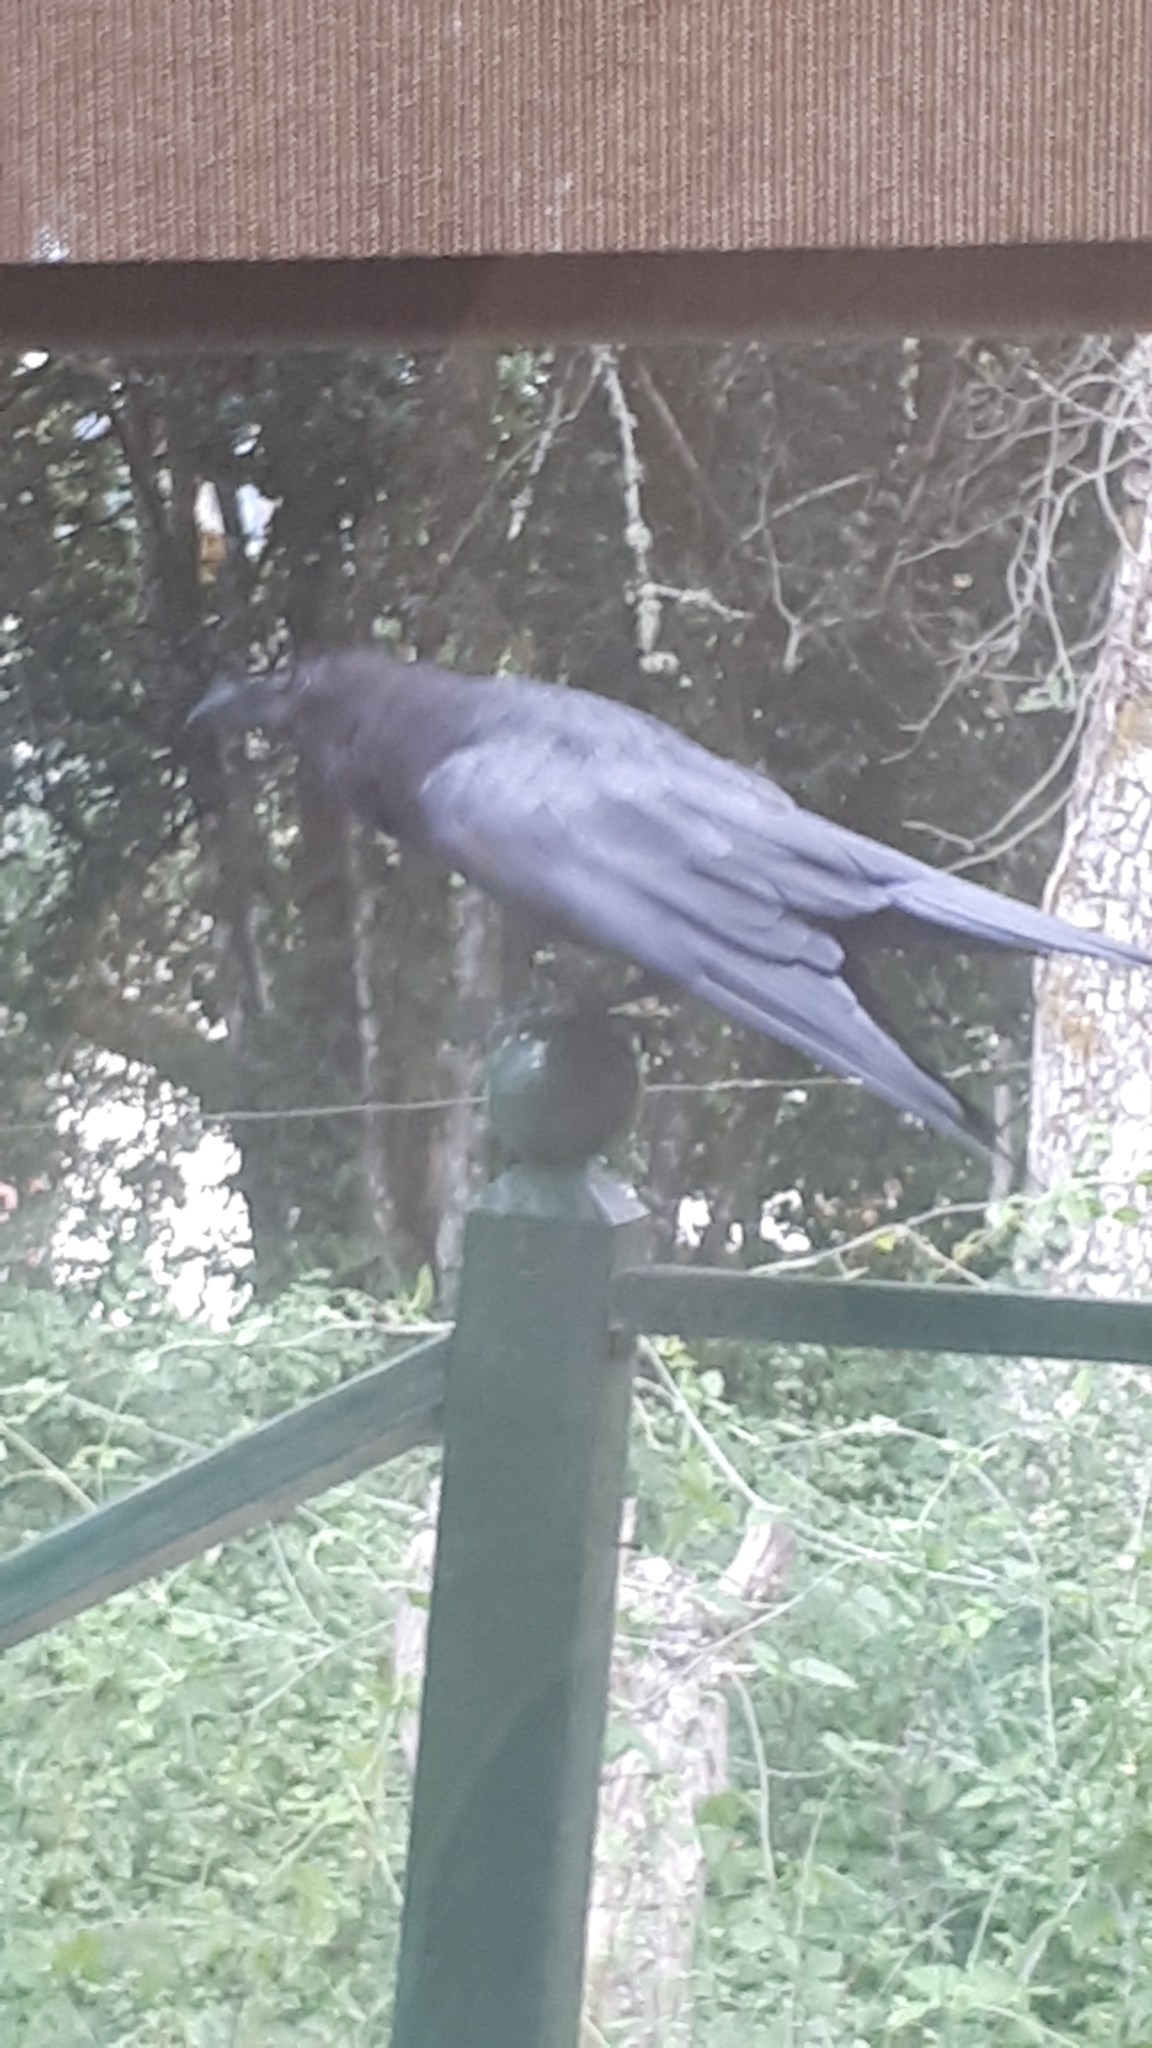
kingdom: Animalia
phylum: Chordata
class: Aves
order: Passeriformes
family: Corvidae
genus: Corvus
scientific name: Corvus corax
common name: Common raven
